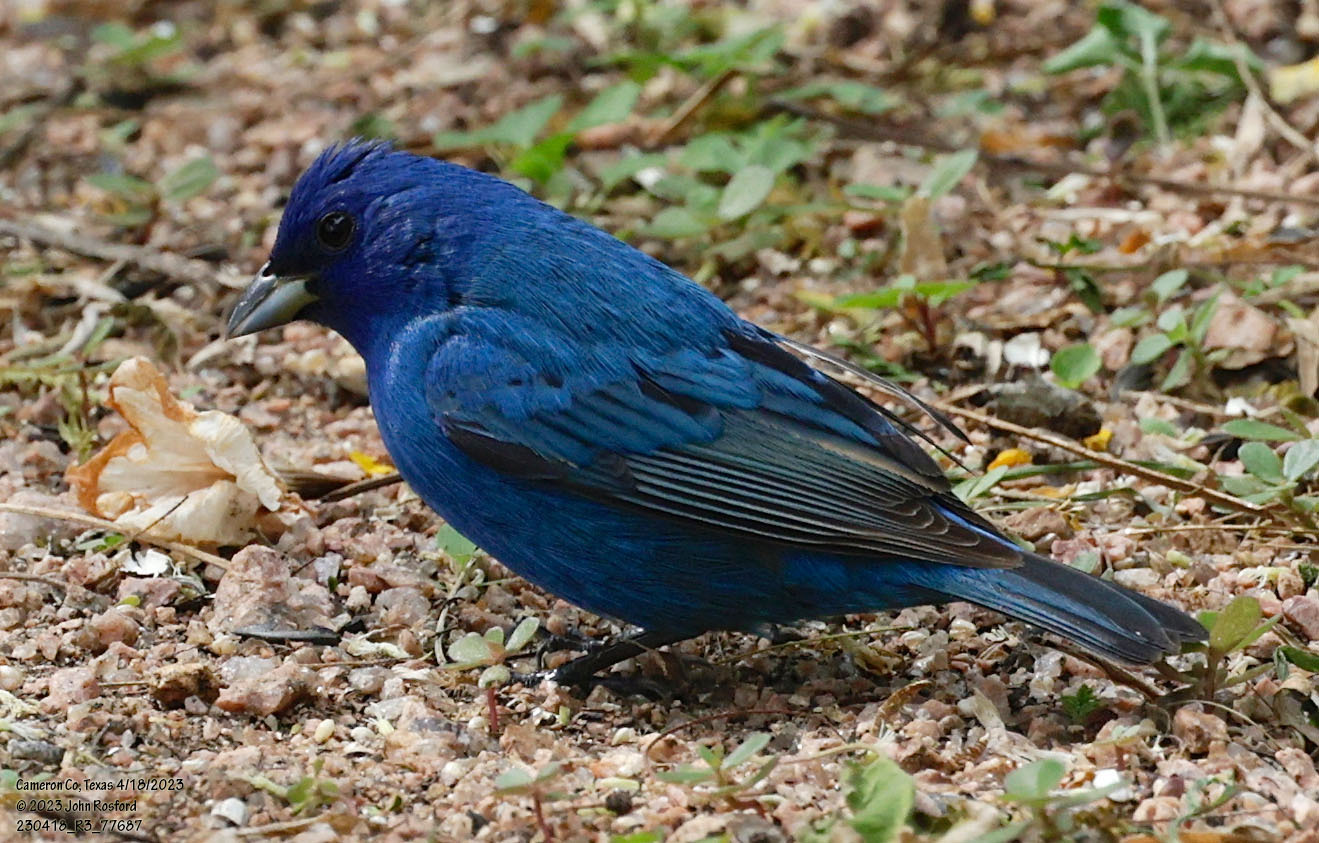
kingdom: Animalia
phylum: Chordata
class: Aves
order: Passeriformes
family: Cardinalidae
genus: Passerina
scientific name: Passerina cyanea
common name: Indigo bunting
